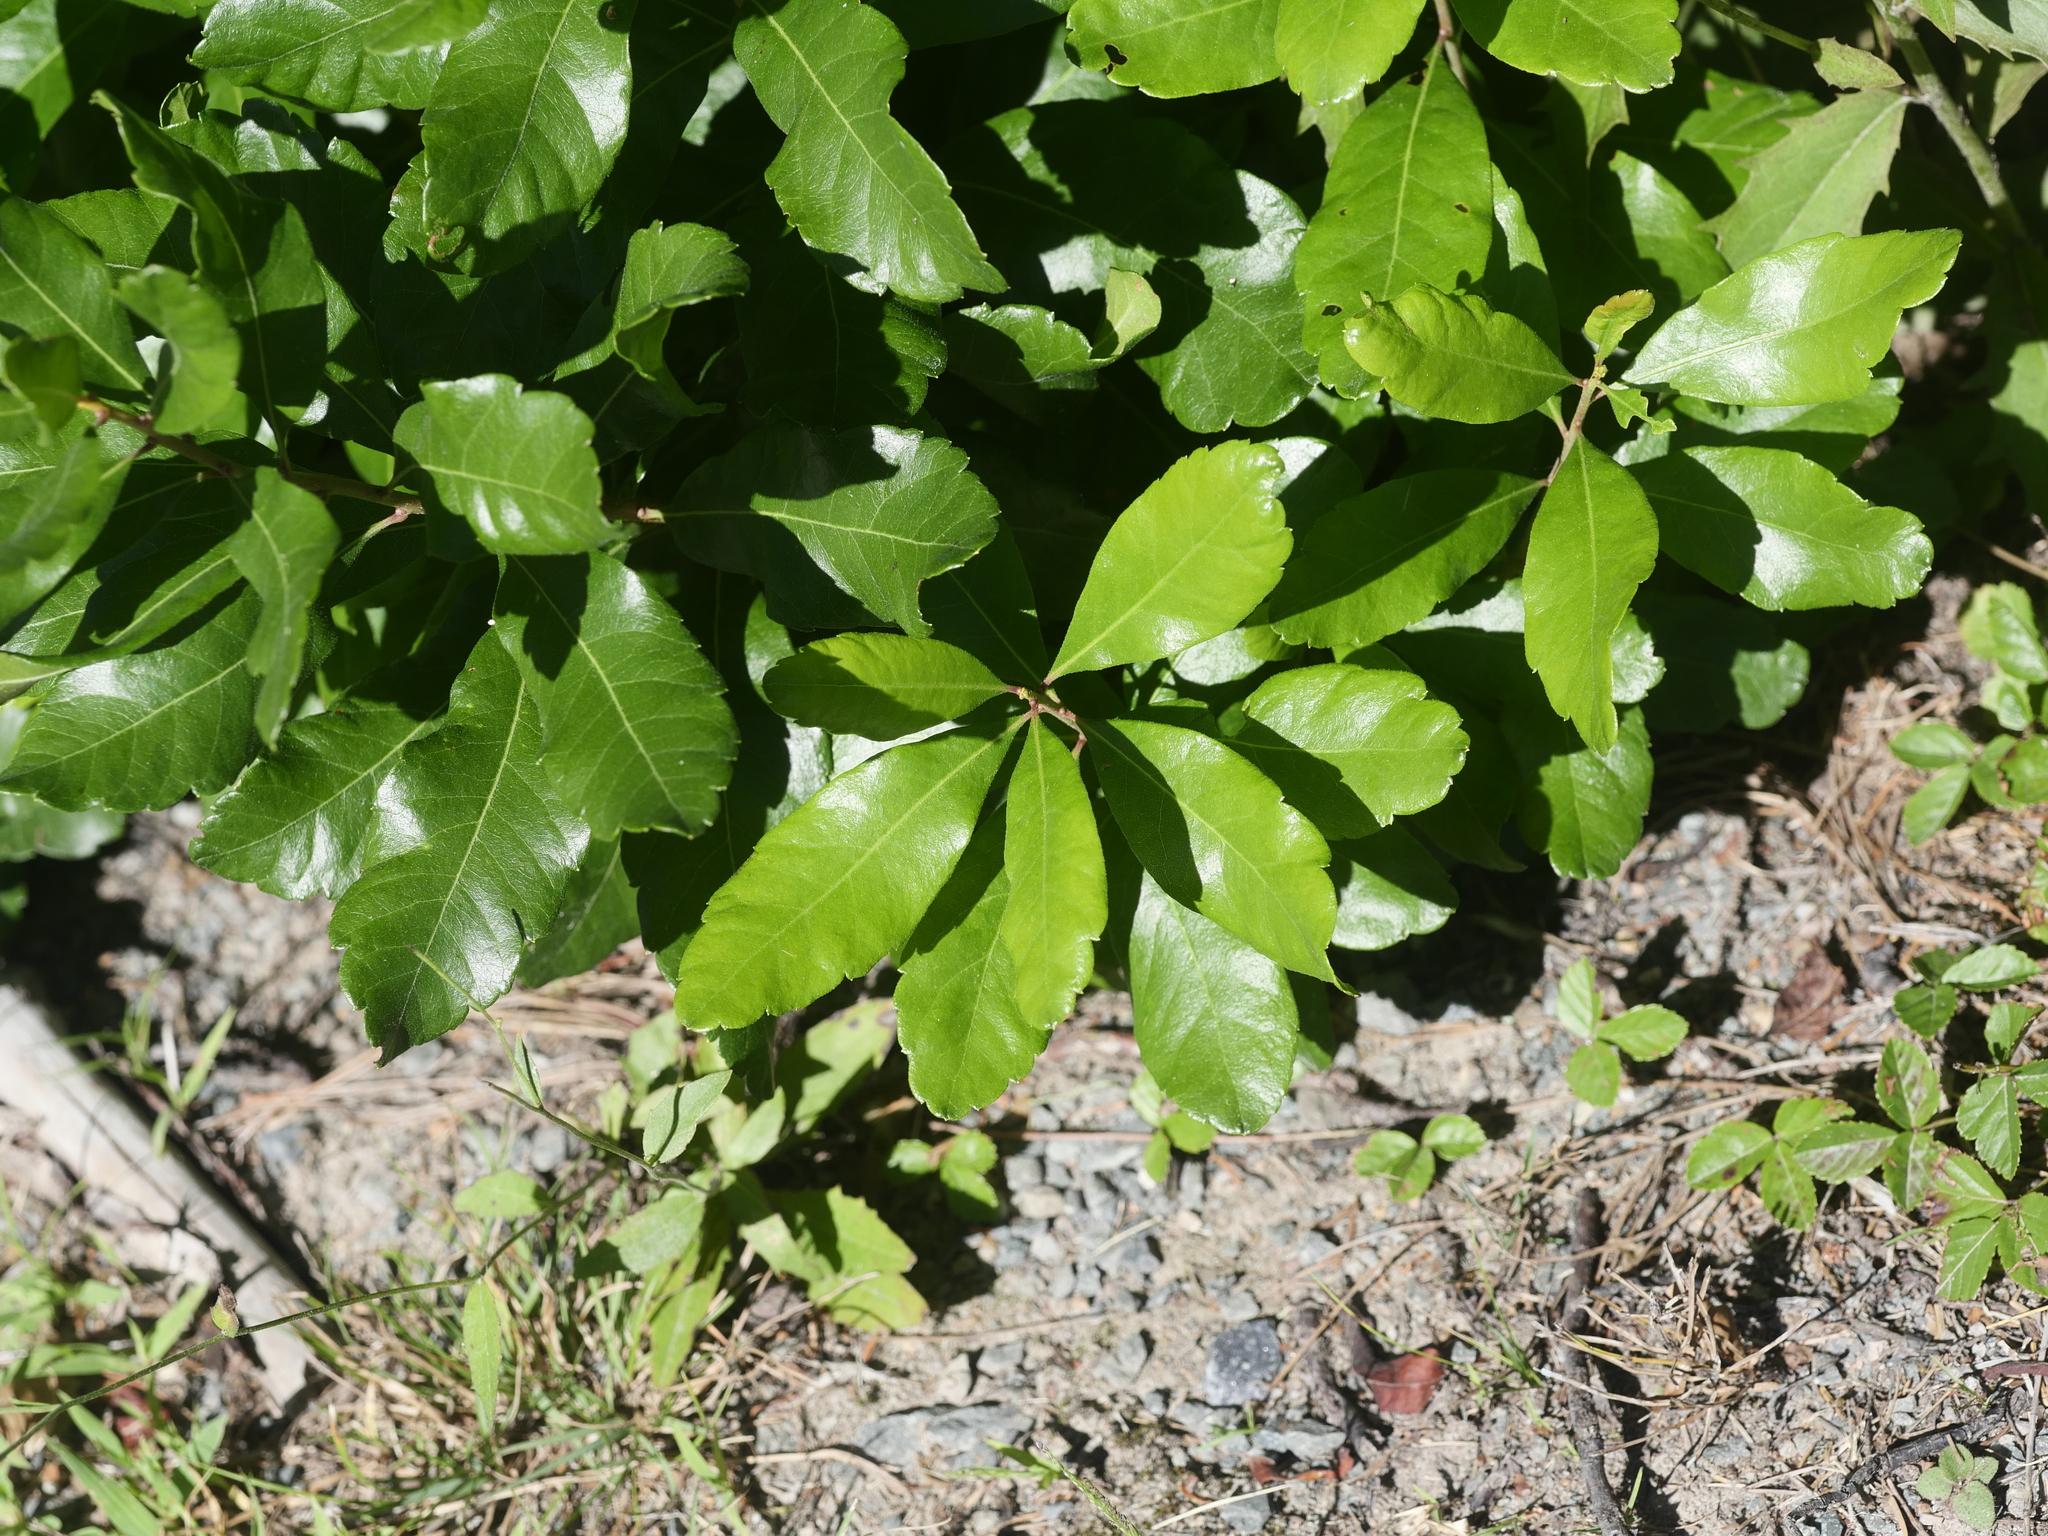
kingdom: Plantae
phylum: Tracheophyta
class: Magnoliopsida
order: Fagales
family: Myricaceae
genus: Morella
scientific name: Morella pensylvanica
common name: Northern bayberry
